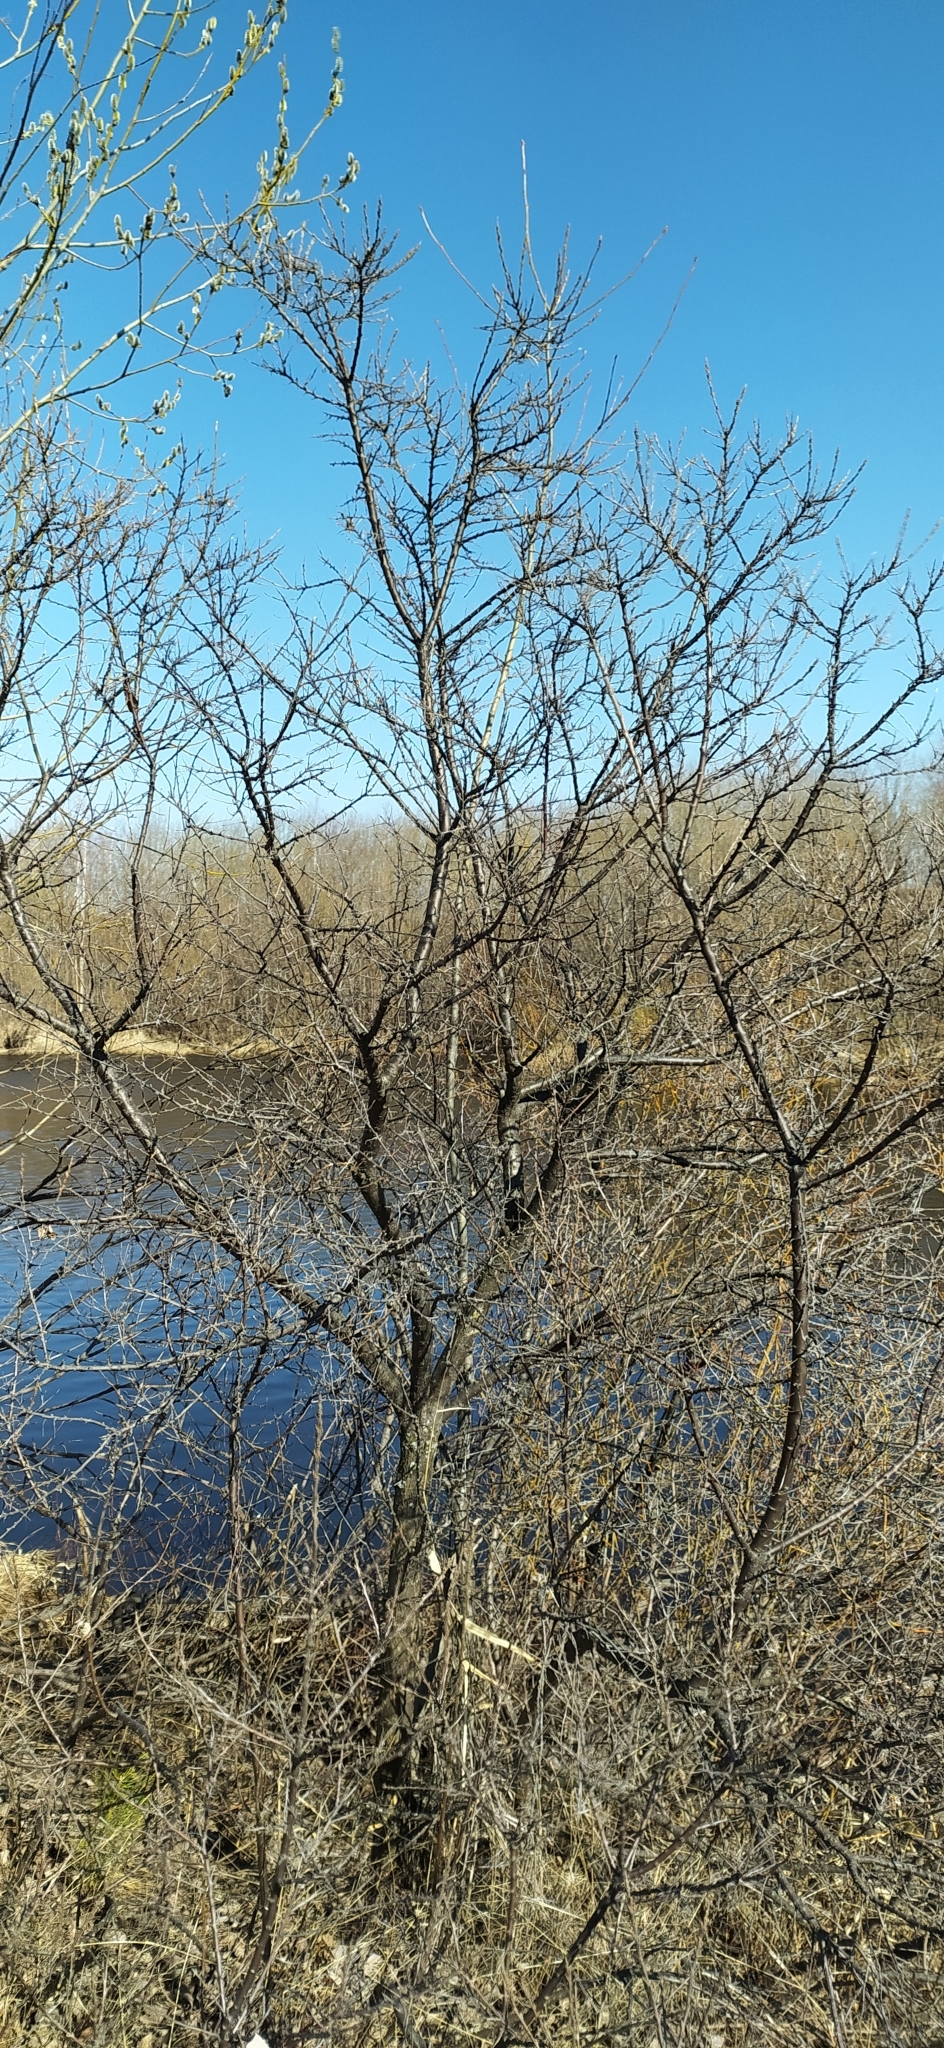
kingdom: Plantae
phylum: Tracheophyta
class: Magnoliopsida
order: Fabales
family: Fabaceae
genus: Caragana
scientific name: Caragana arborescens
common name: Siberian peashrub
